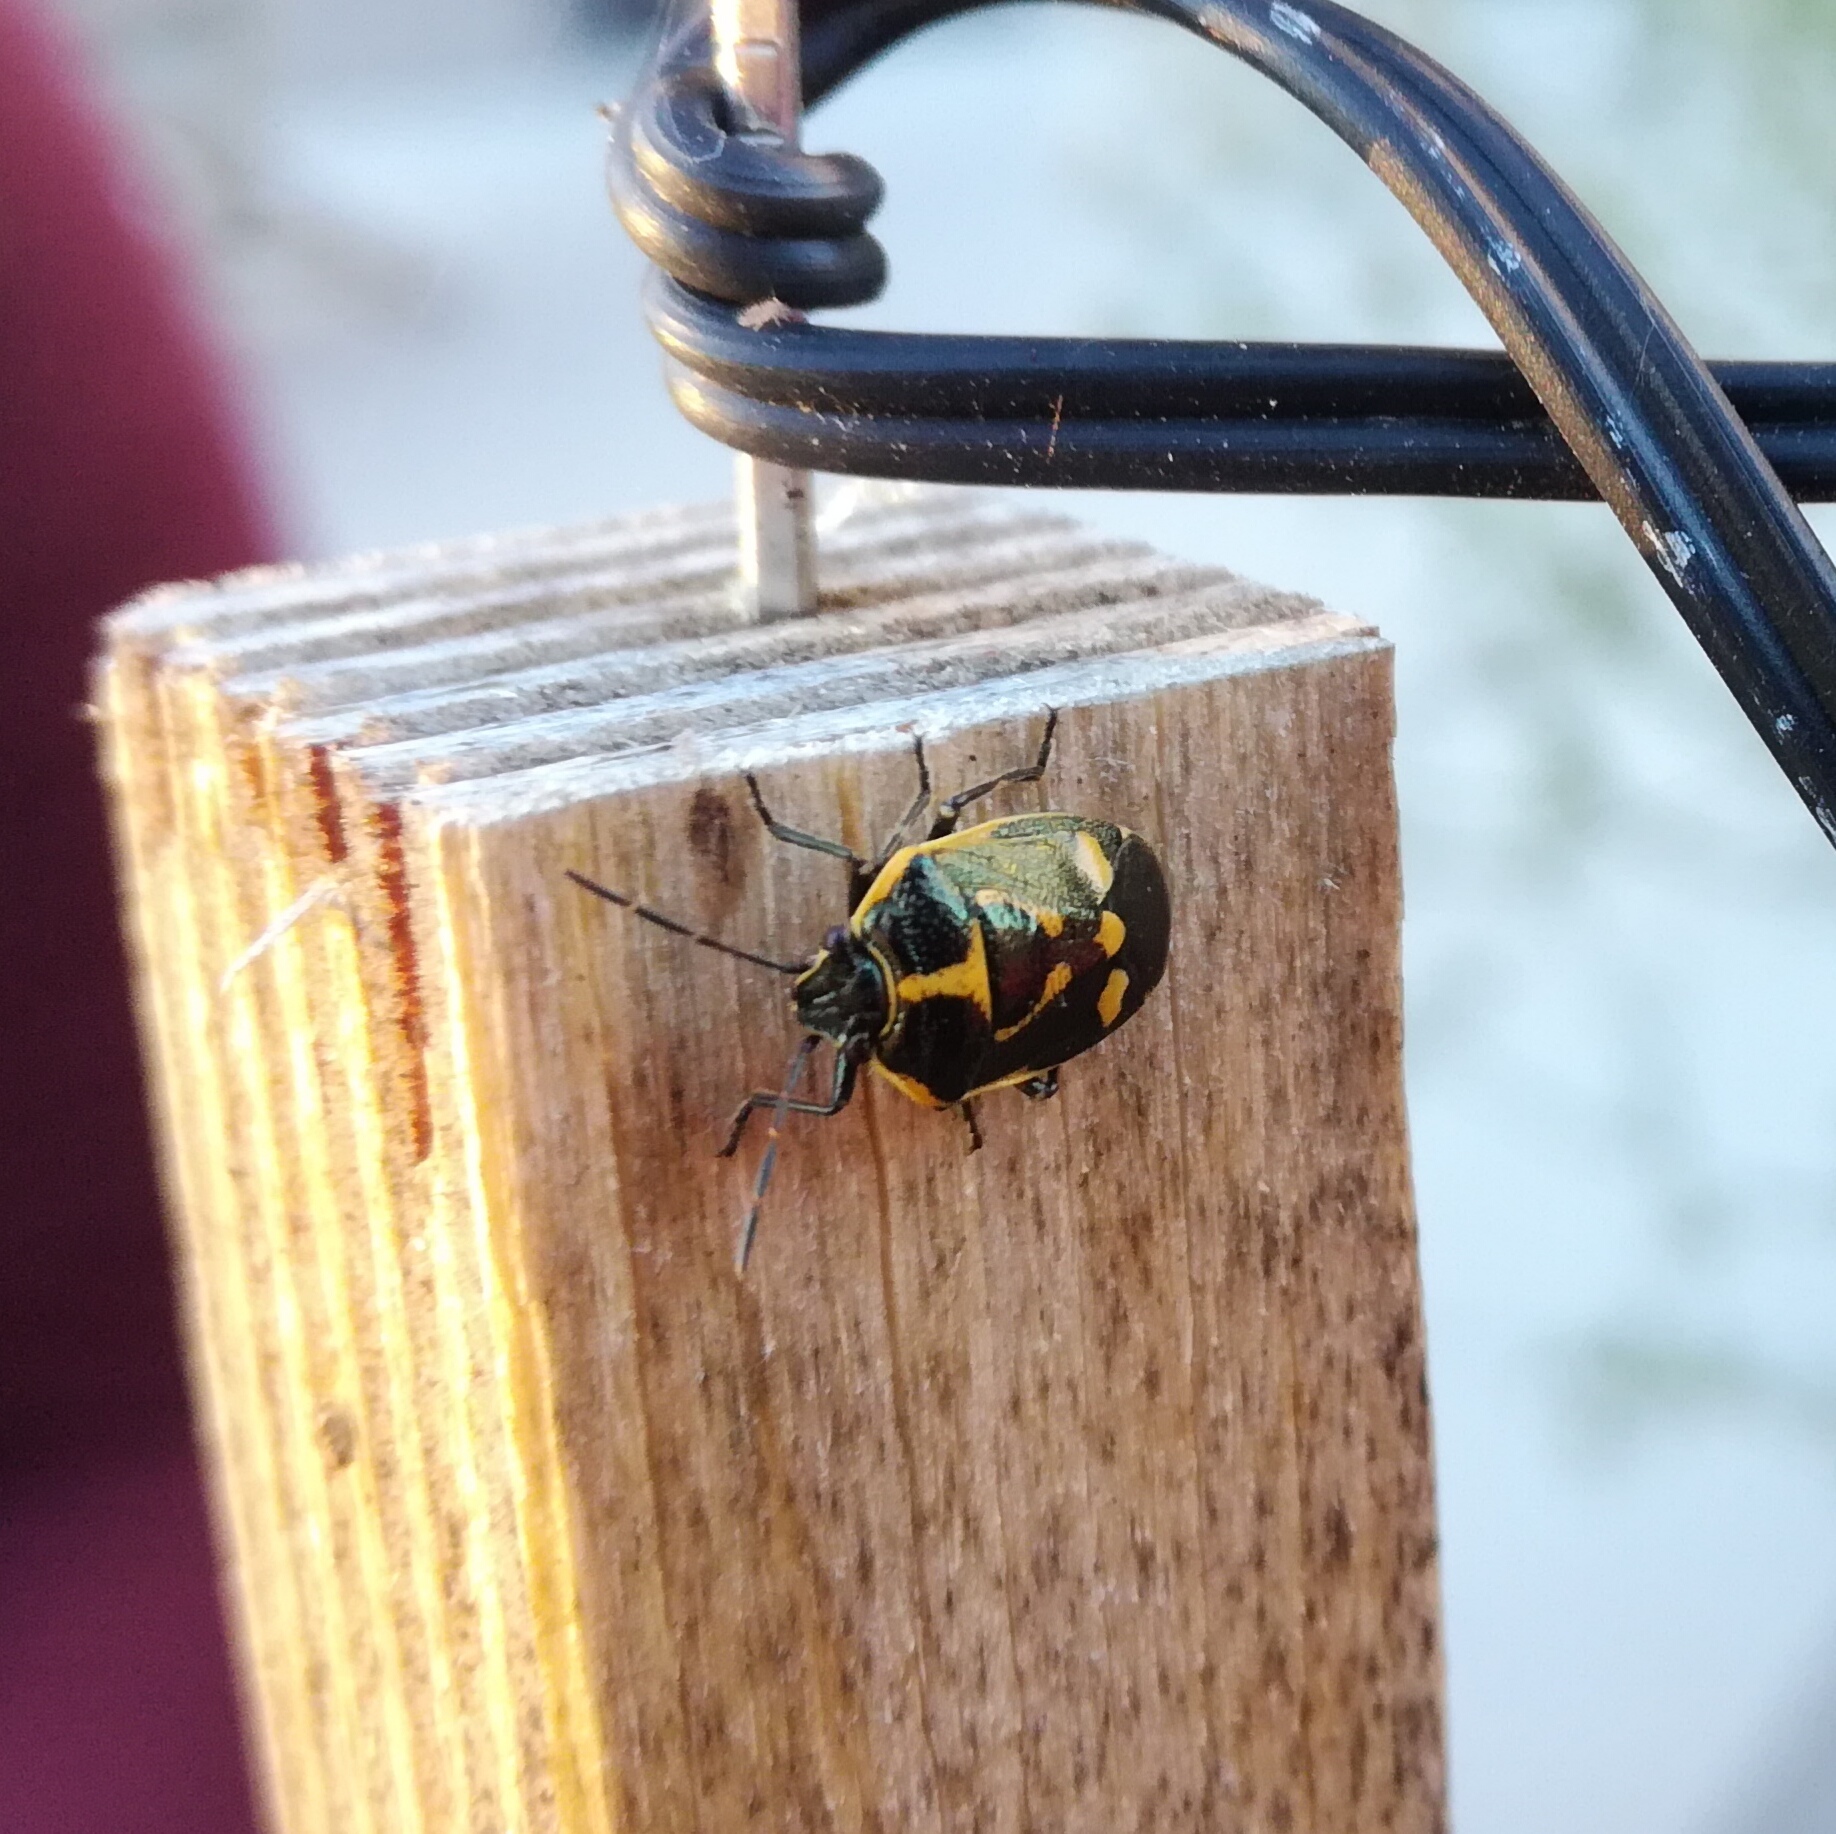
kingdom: Animalia
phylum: Arthropoda
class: Insecta
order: Hemiptera
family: Pentatomidae
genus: Eurydema
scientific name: Eurydema oleracea
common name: Cabbage bug
